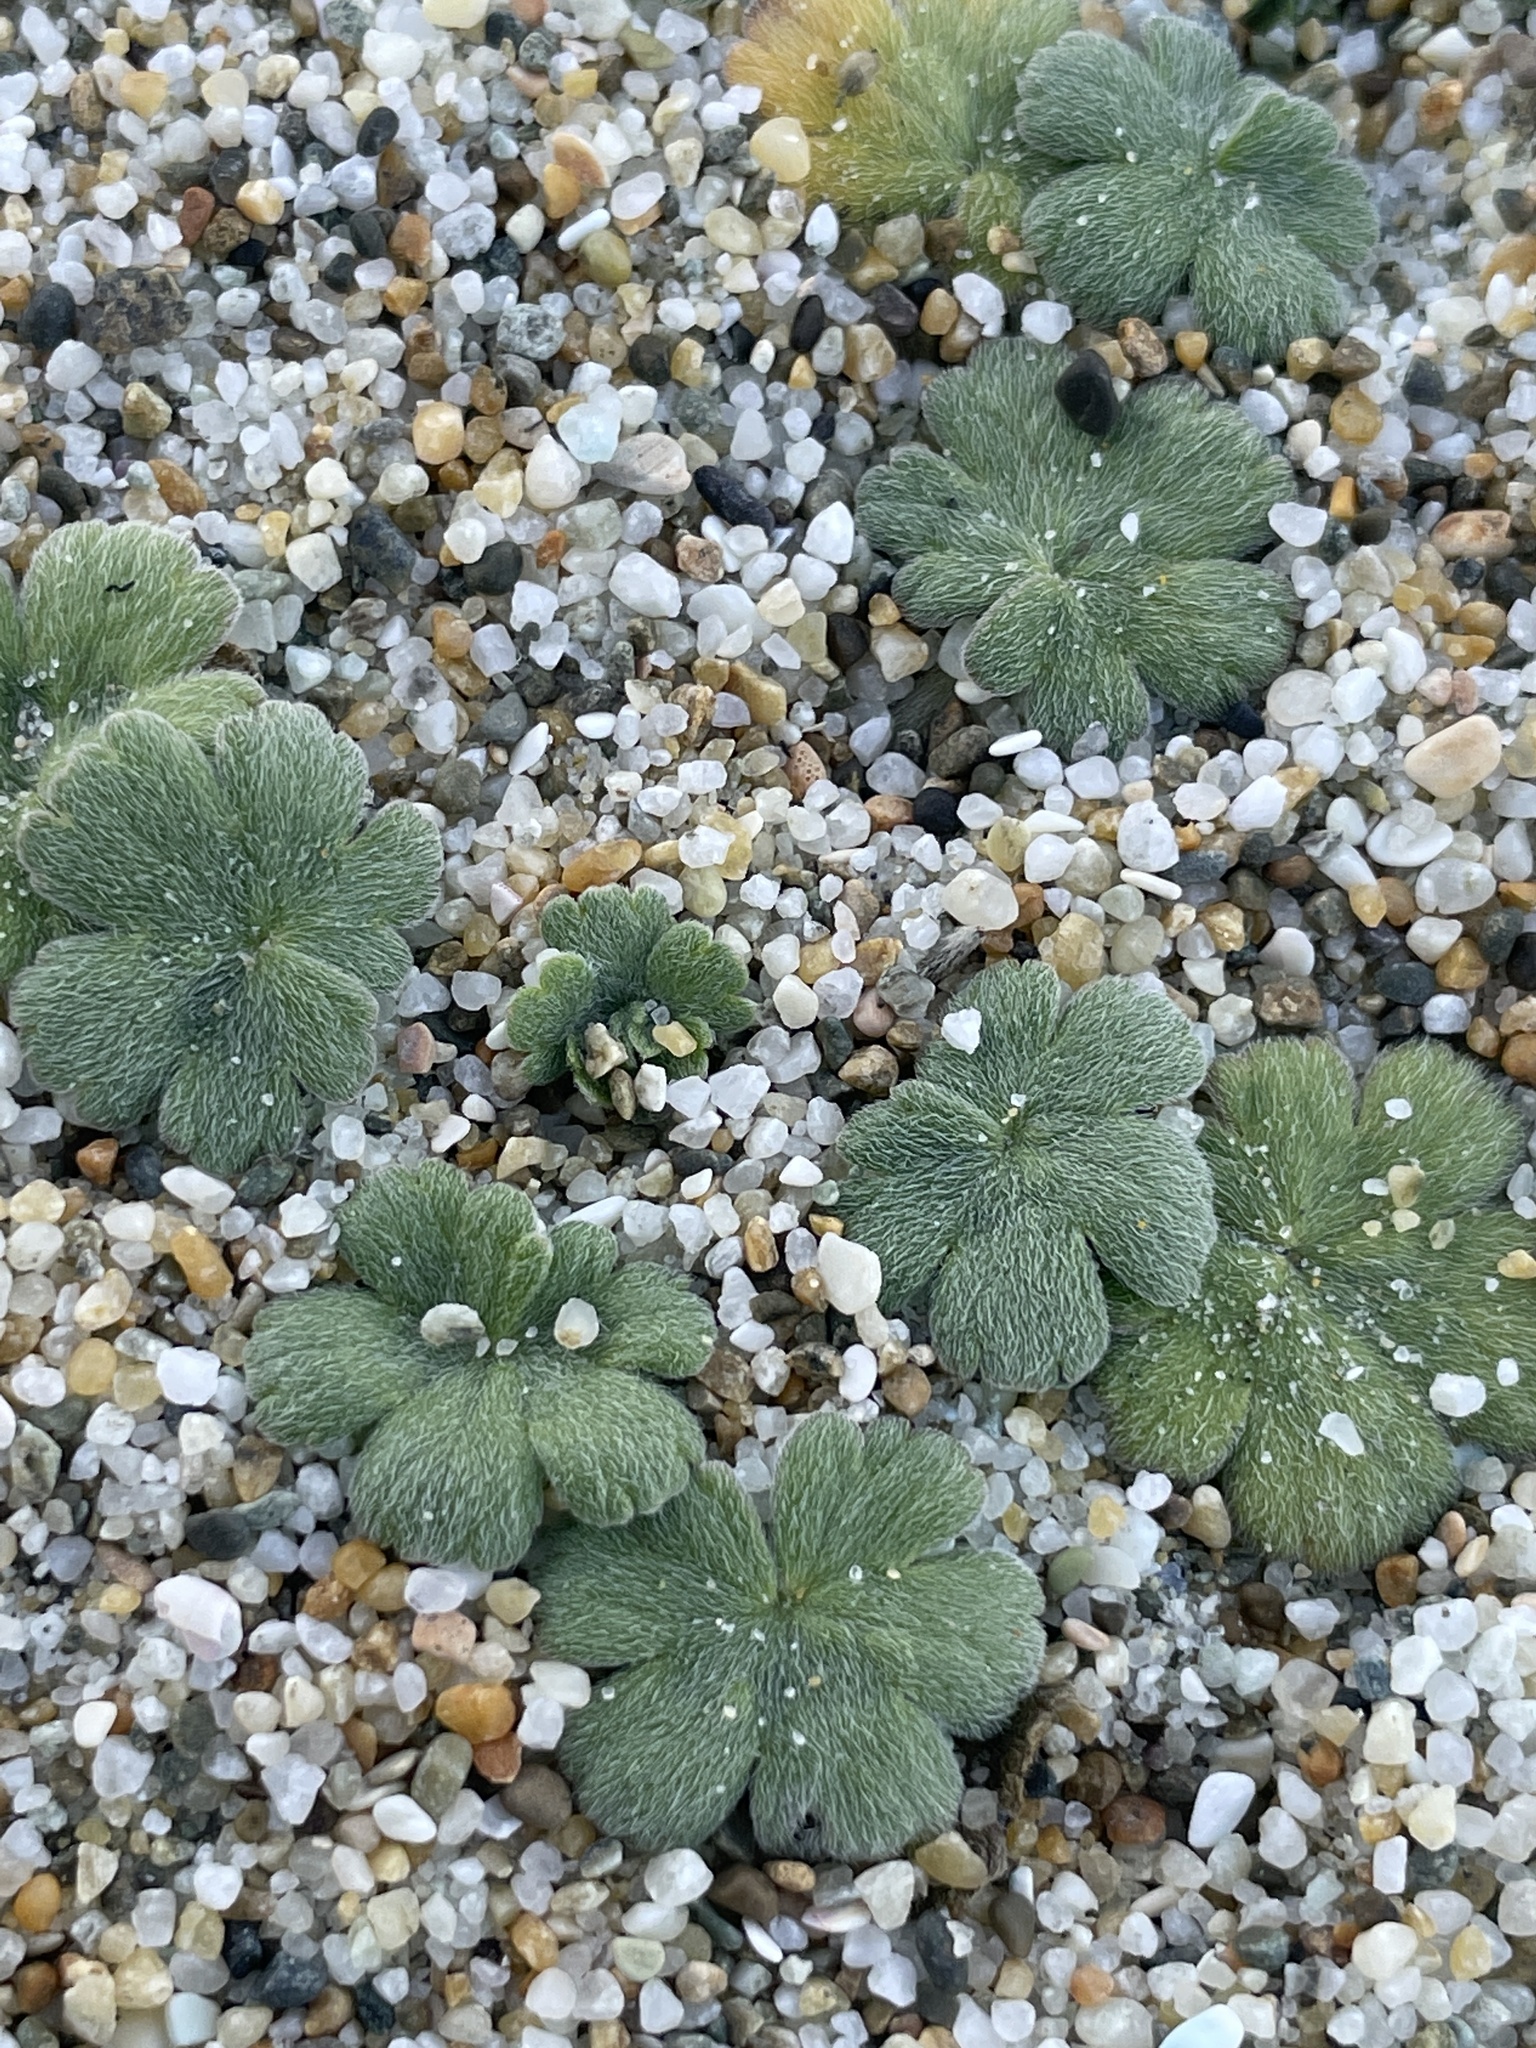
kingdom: Plantae
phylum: Tracheophyta
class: Magnoliopsida
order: Geraniales
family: Geraniaceae
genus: Geranium
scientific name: Geranium brevicaule
